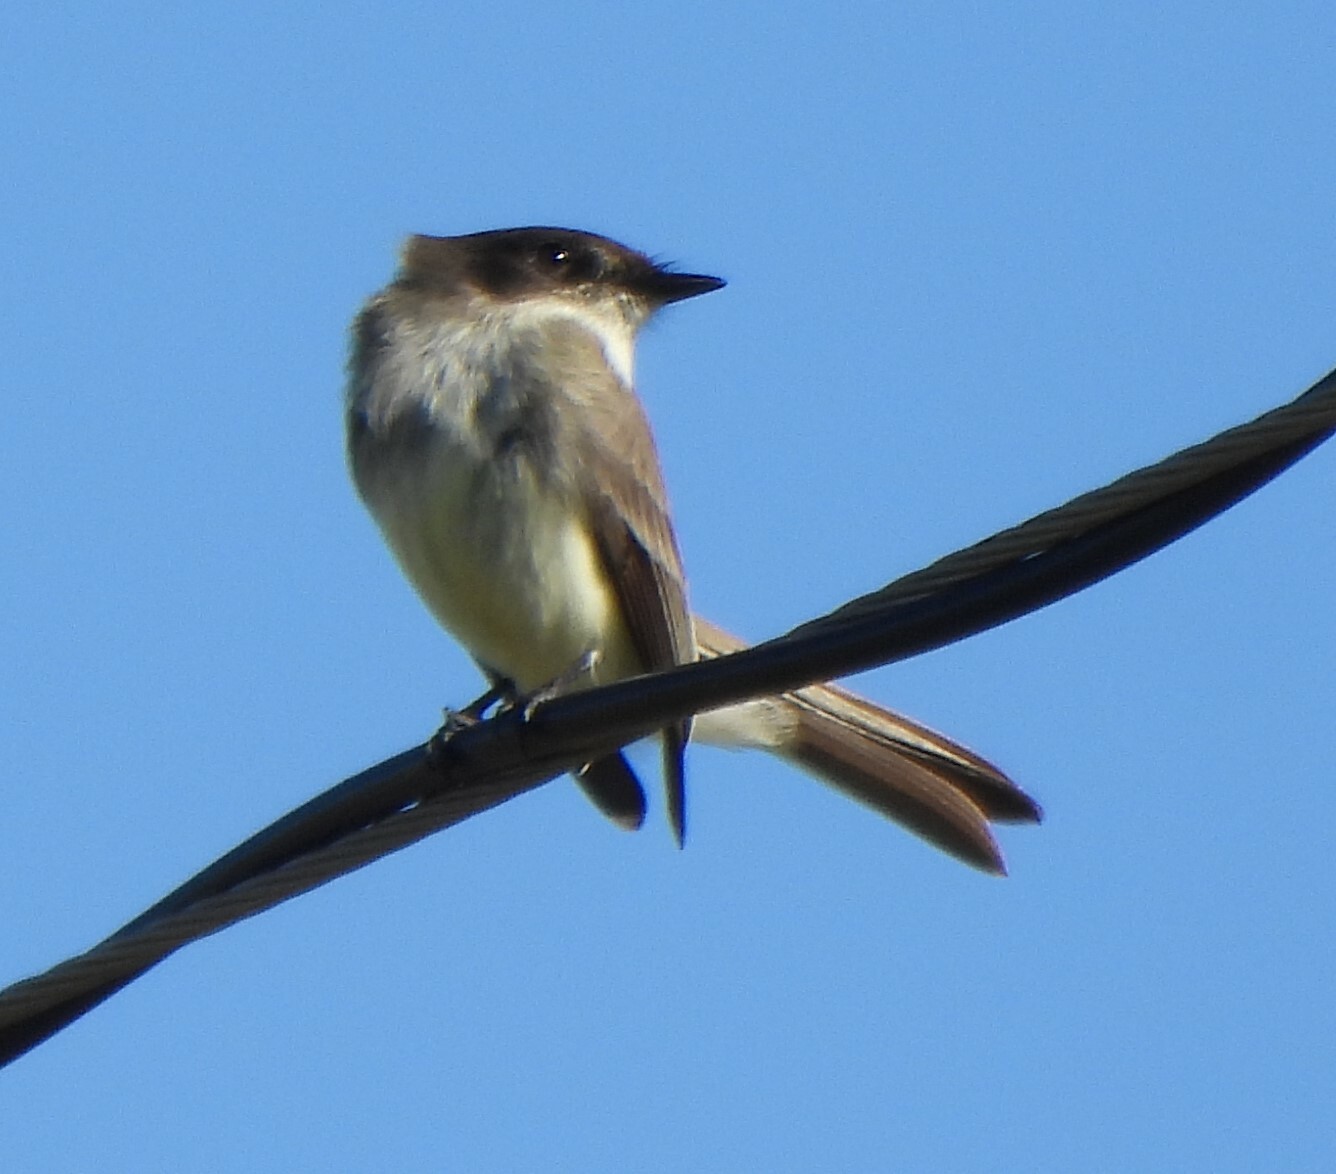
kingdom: Animalia
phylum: Chordata
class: Aves
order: Passeriformes
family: Tyrannidae
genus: Sayornis
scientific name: Sayornis phoebe
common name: Eastern phoebe
